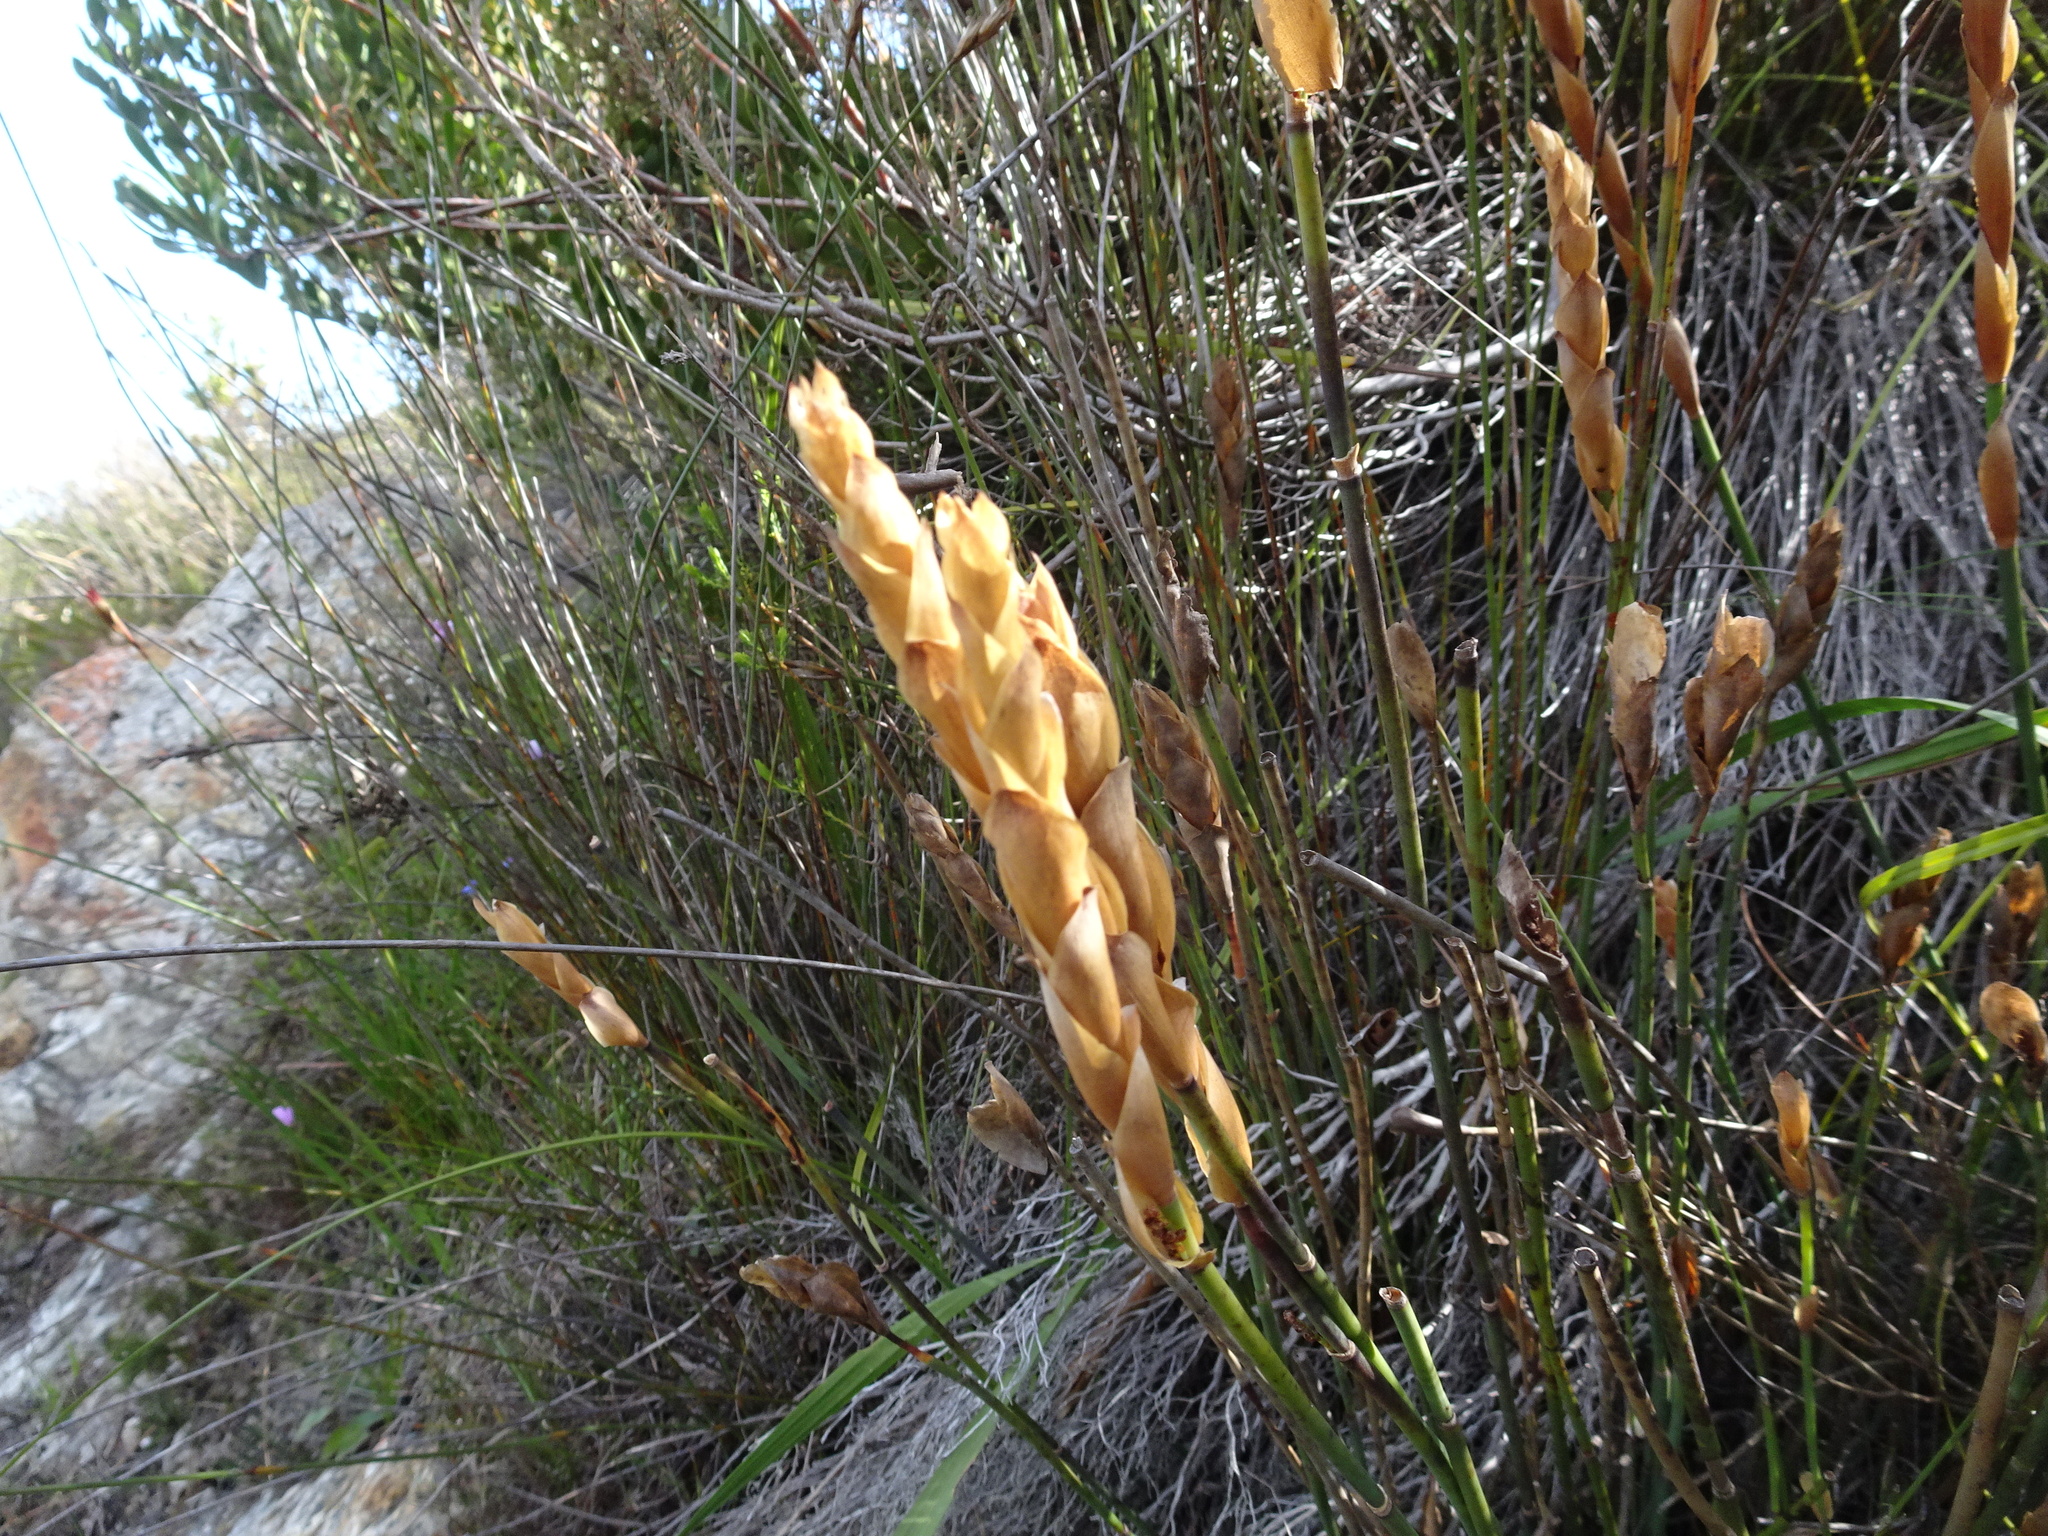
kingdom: Plantae
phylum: Tracheophyta
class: Liliopsida
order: Poales
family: Restionaceae
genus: Elegia
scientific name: Elegia persistens
